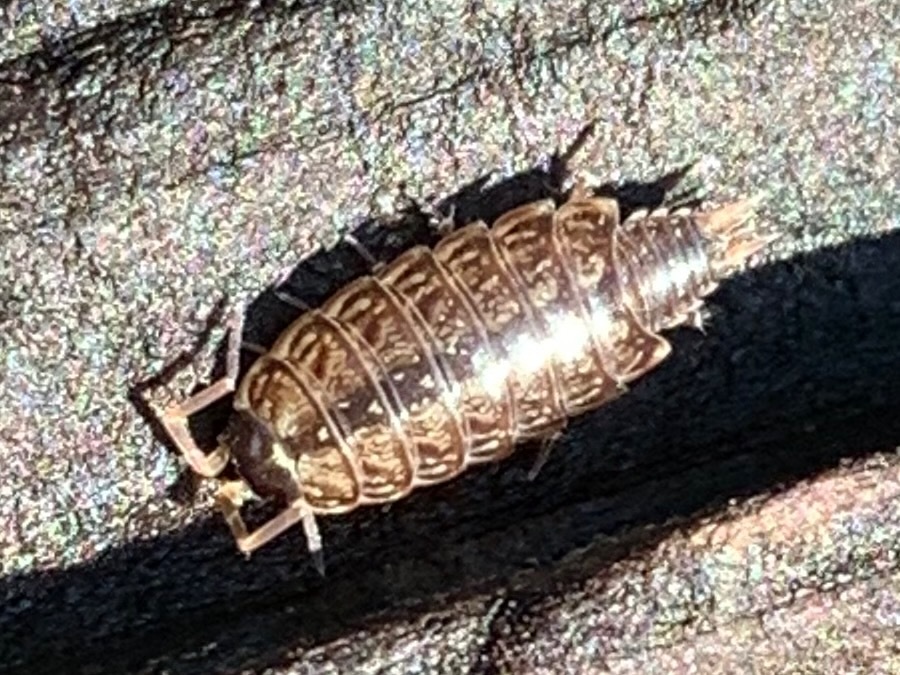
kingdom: Animalia
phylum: Arthropoda
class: Malacostraca
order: Isopoda
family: Philosciidae
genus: Philoscia
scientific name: Philoscia muscorum
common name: Common striped woodlouse
